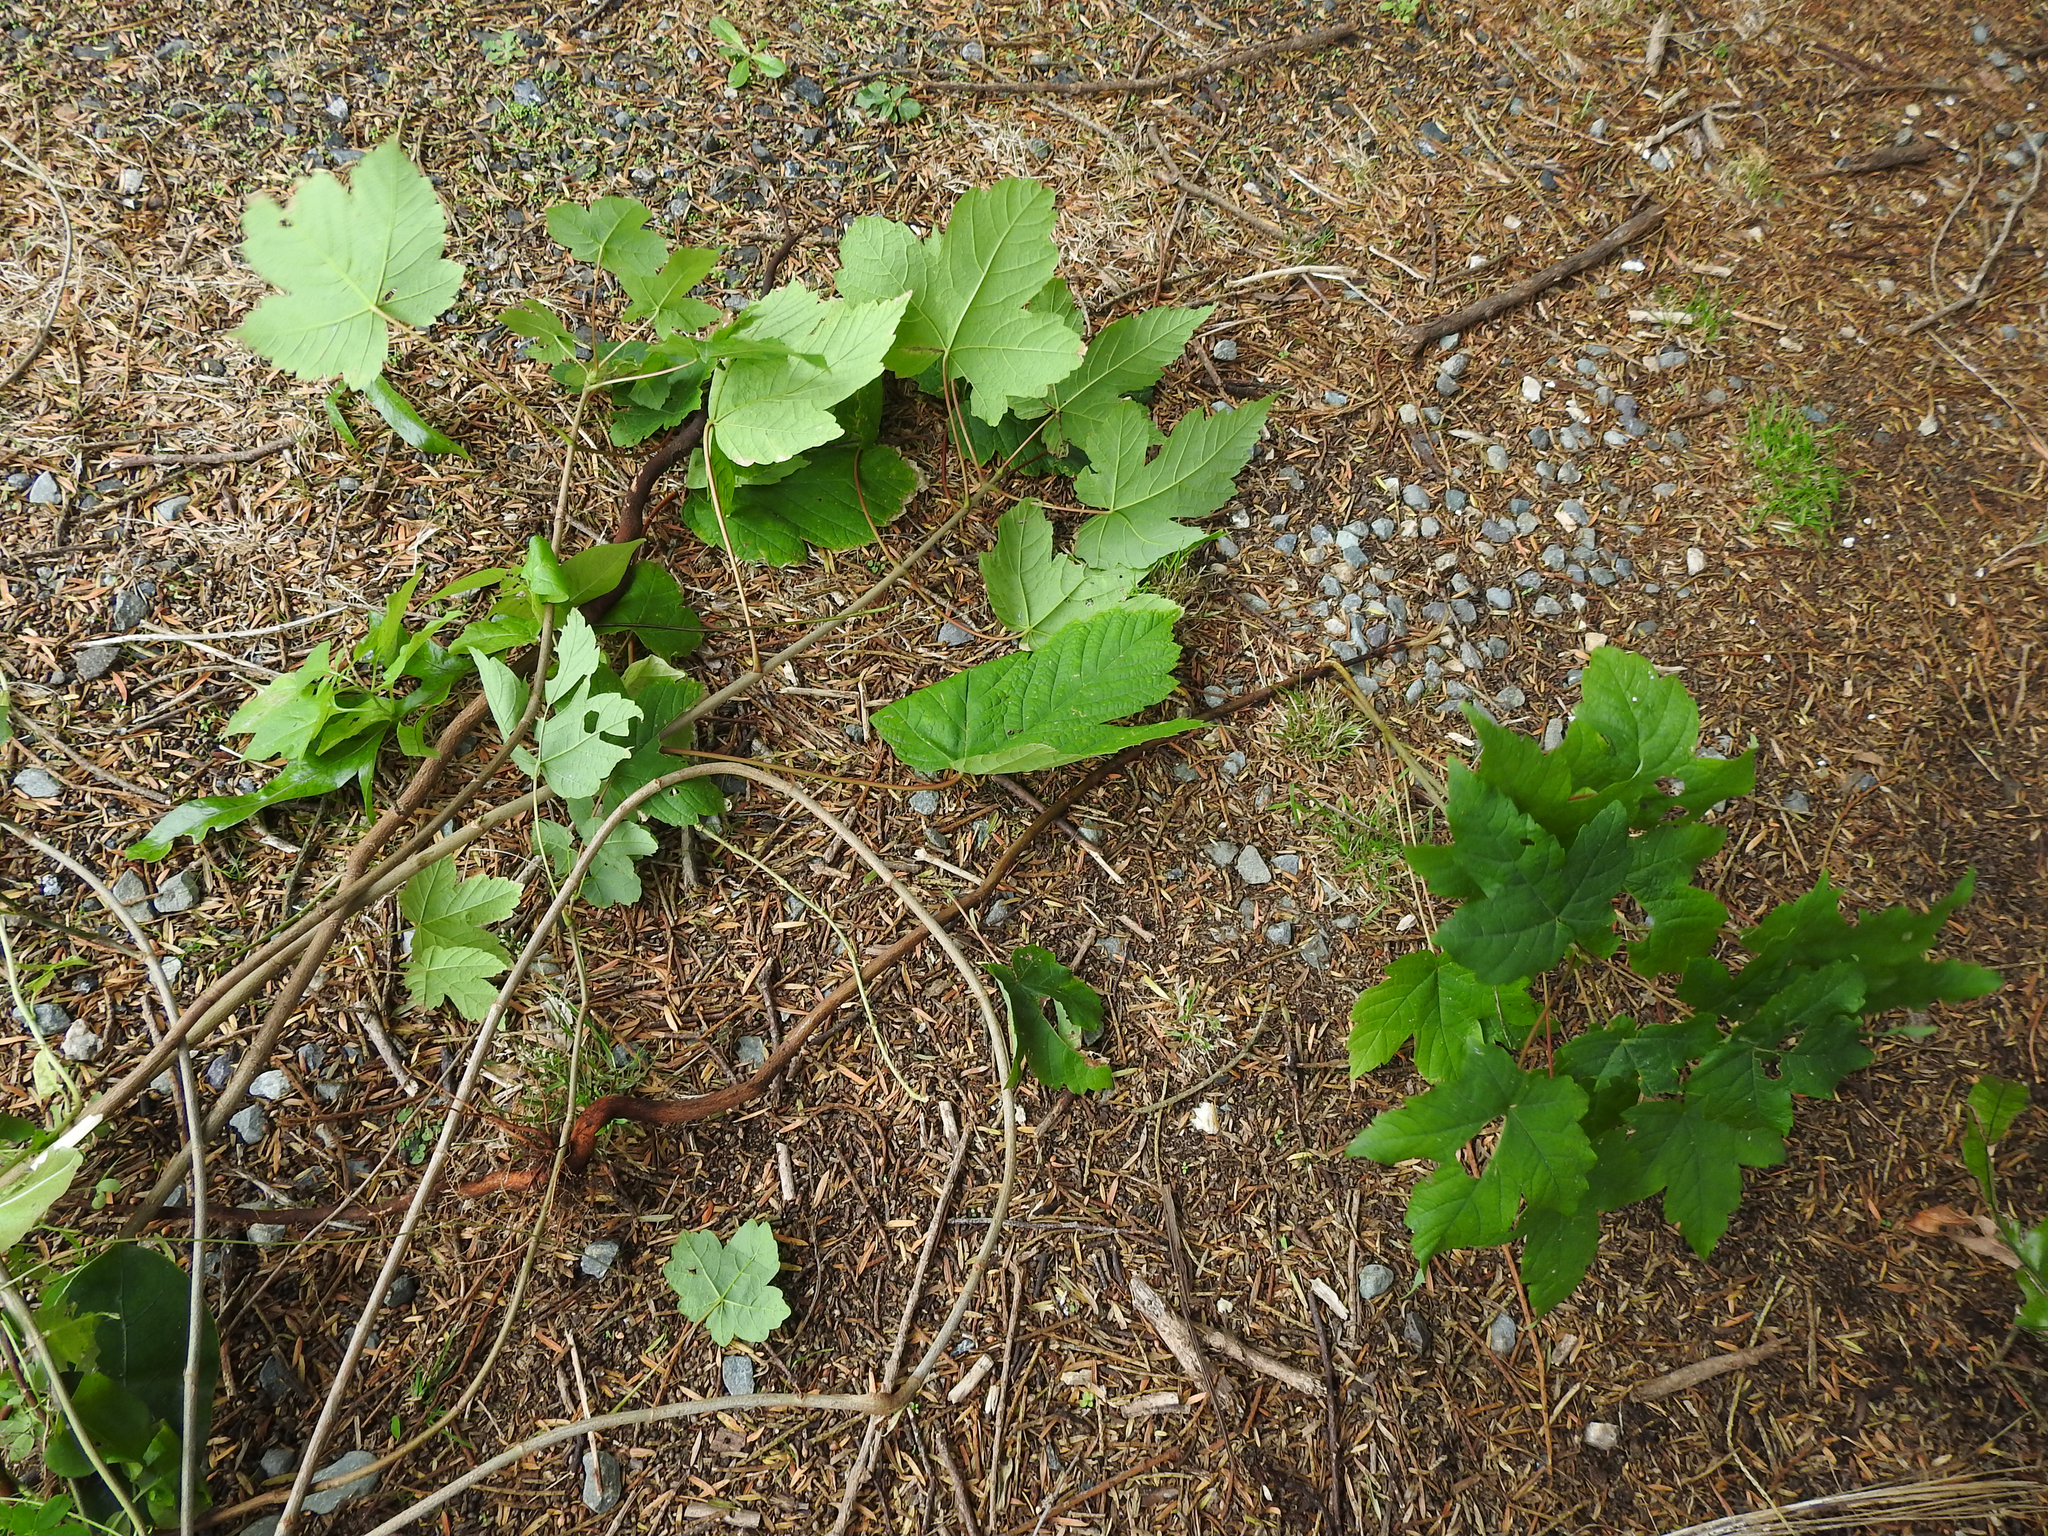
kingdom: Plantae
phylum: Tracheophyta
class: Magnoliopsida
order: Sapindales
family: Sapindaceae
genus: Acer
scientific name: Acer pseudoplatanus
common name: Sycamore
